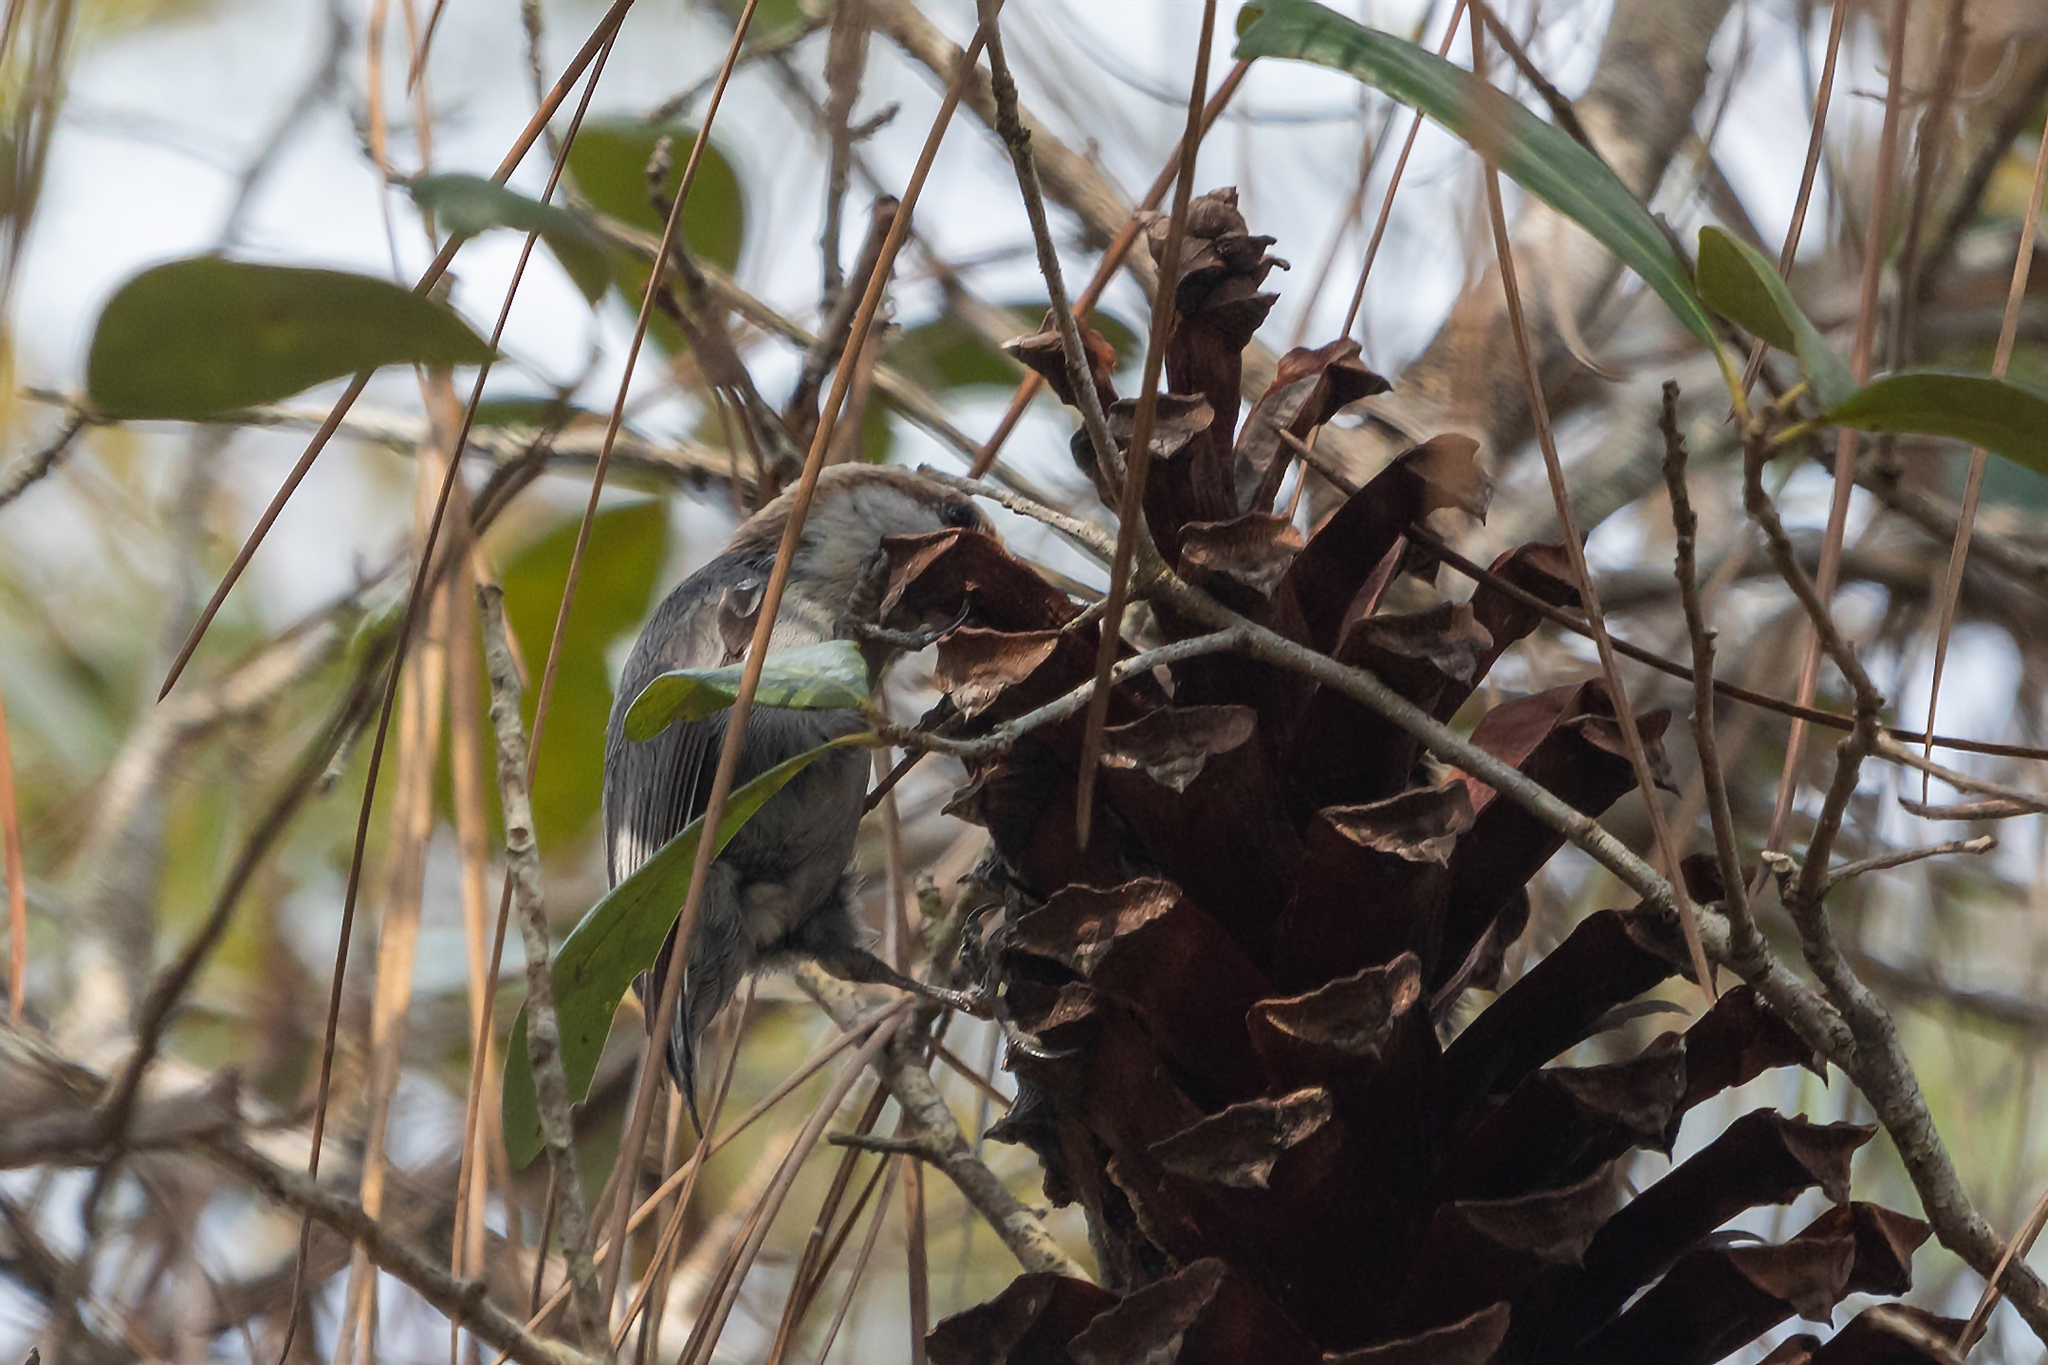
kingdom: Animalia
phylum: Chordata
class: Aves
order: Passeriformes
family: Sittidae
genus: Sitta
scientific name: Sitta pusilla
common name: Brown-headed nuthatch
